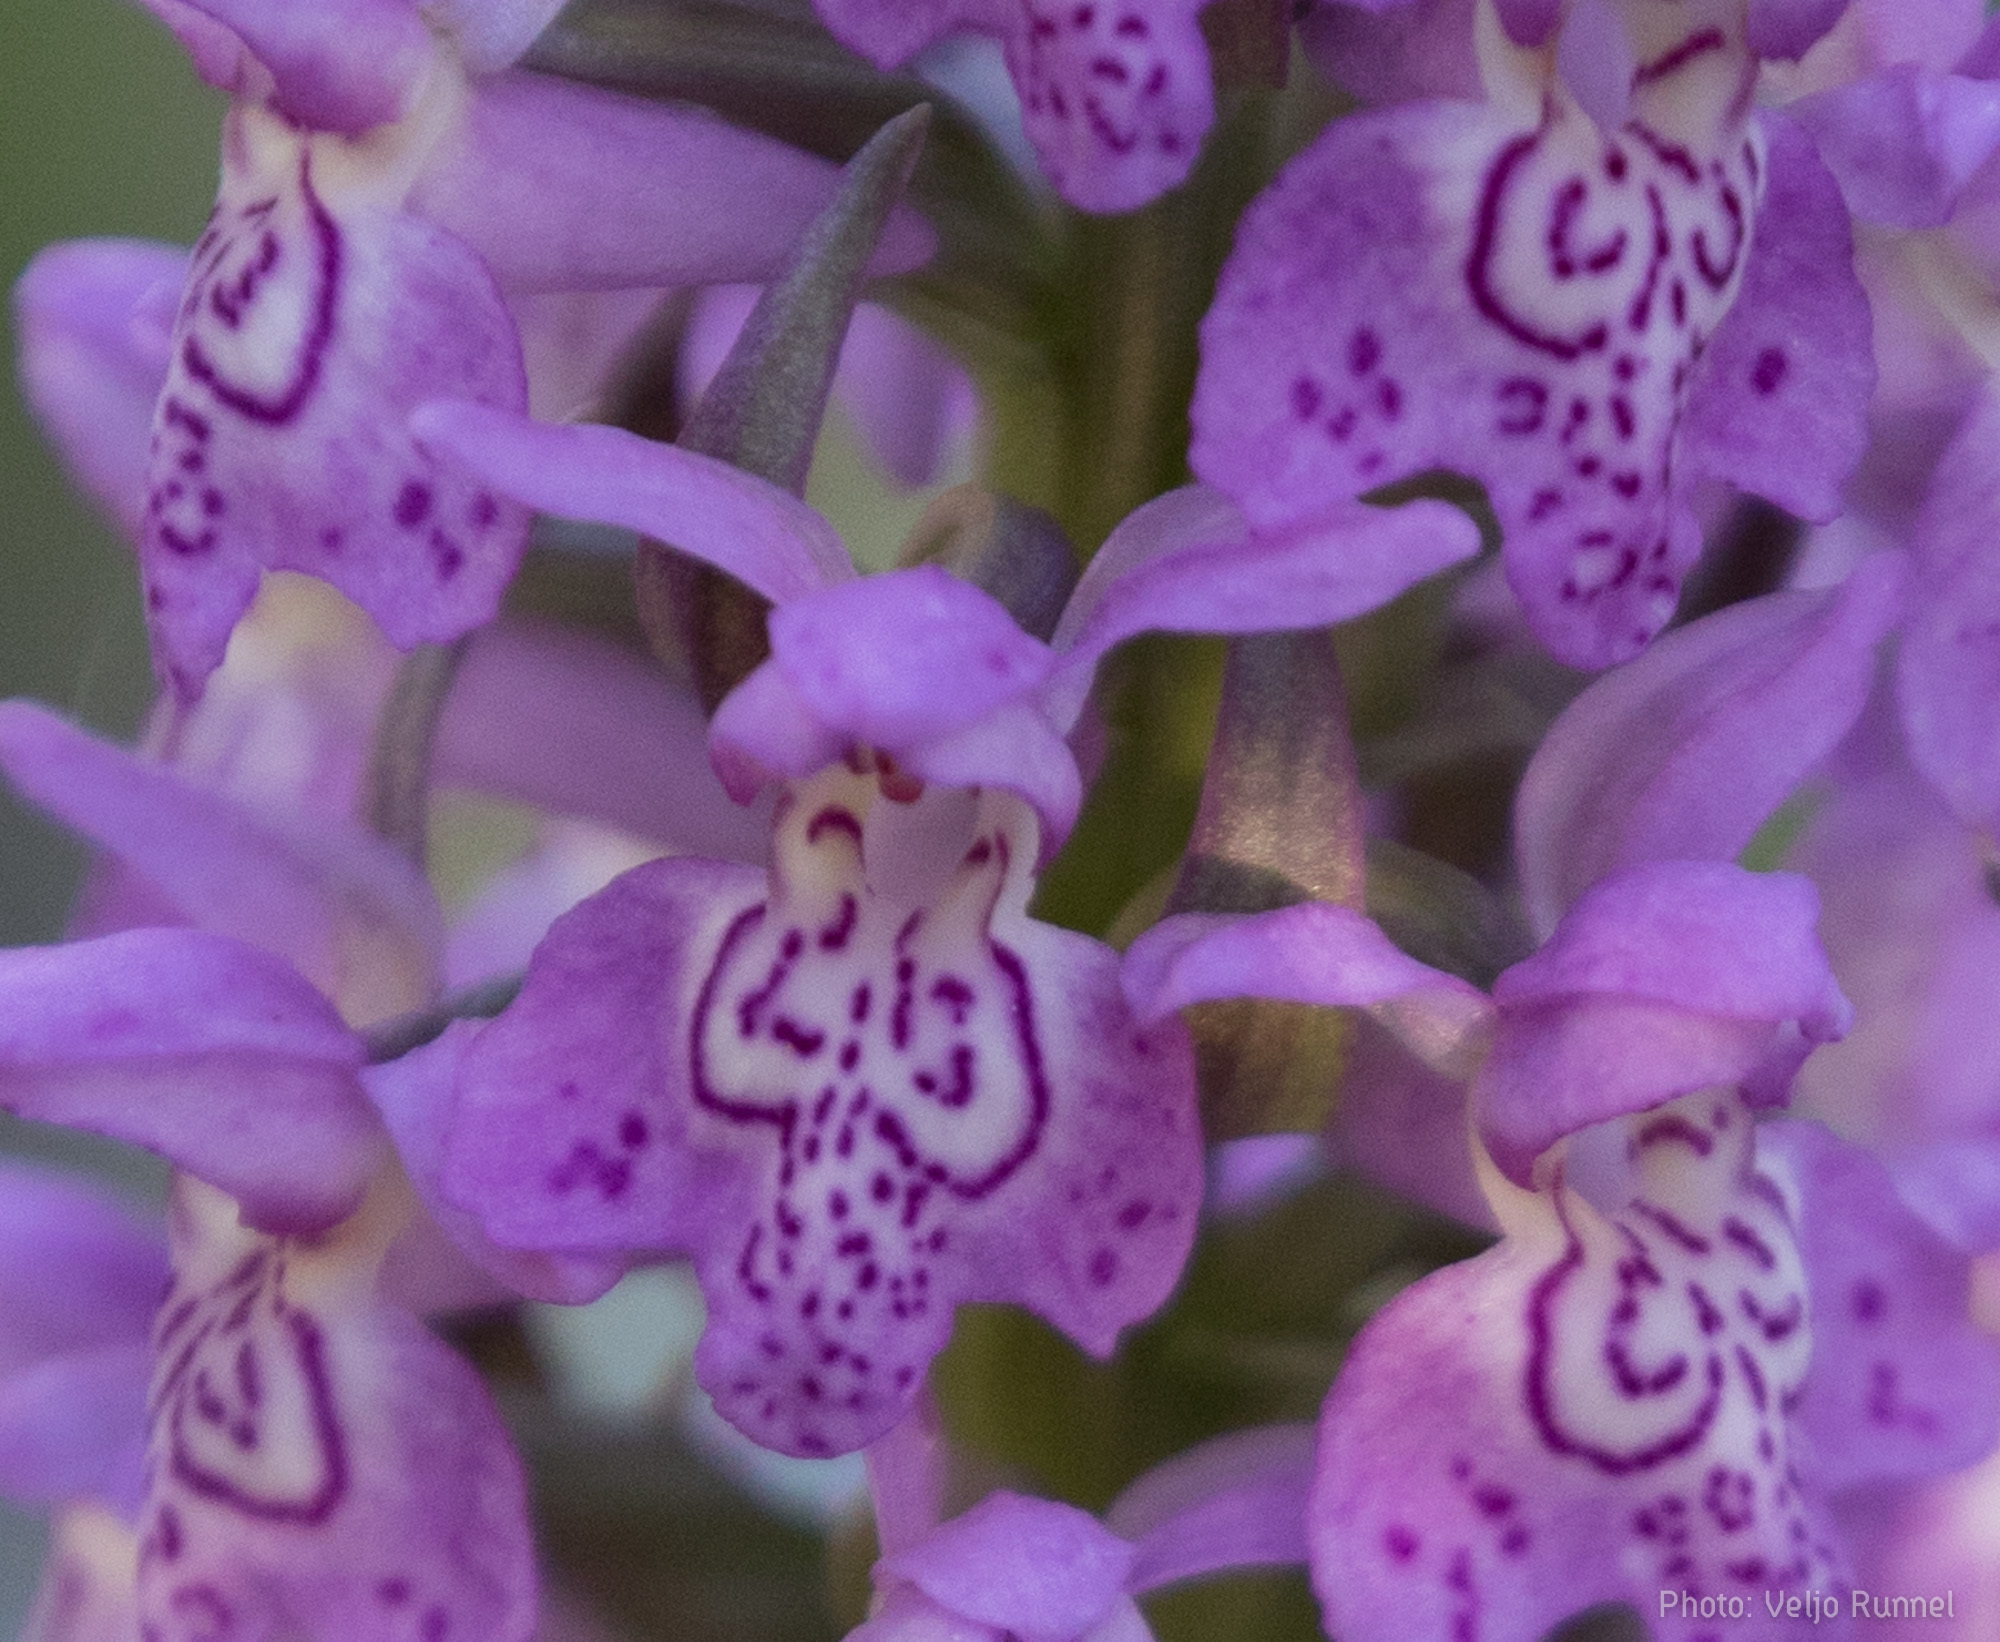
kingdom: Plantae
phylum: Tracheophyta
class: Liliopsida
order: Asparagales
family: Orchidaceae
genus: Dactylorhiza
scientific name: Dactylorhiza majalis
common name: Marsh orchid
